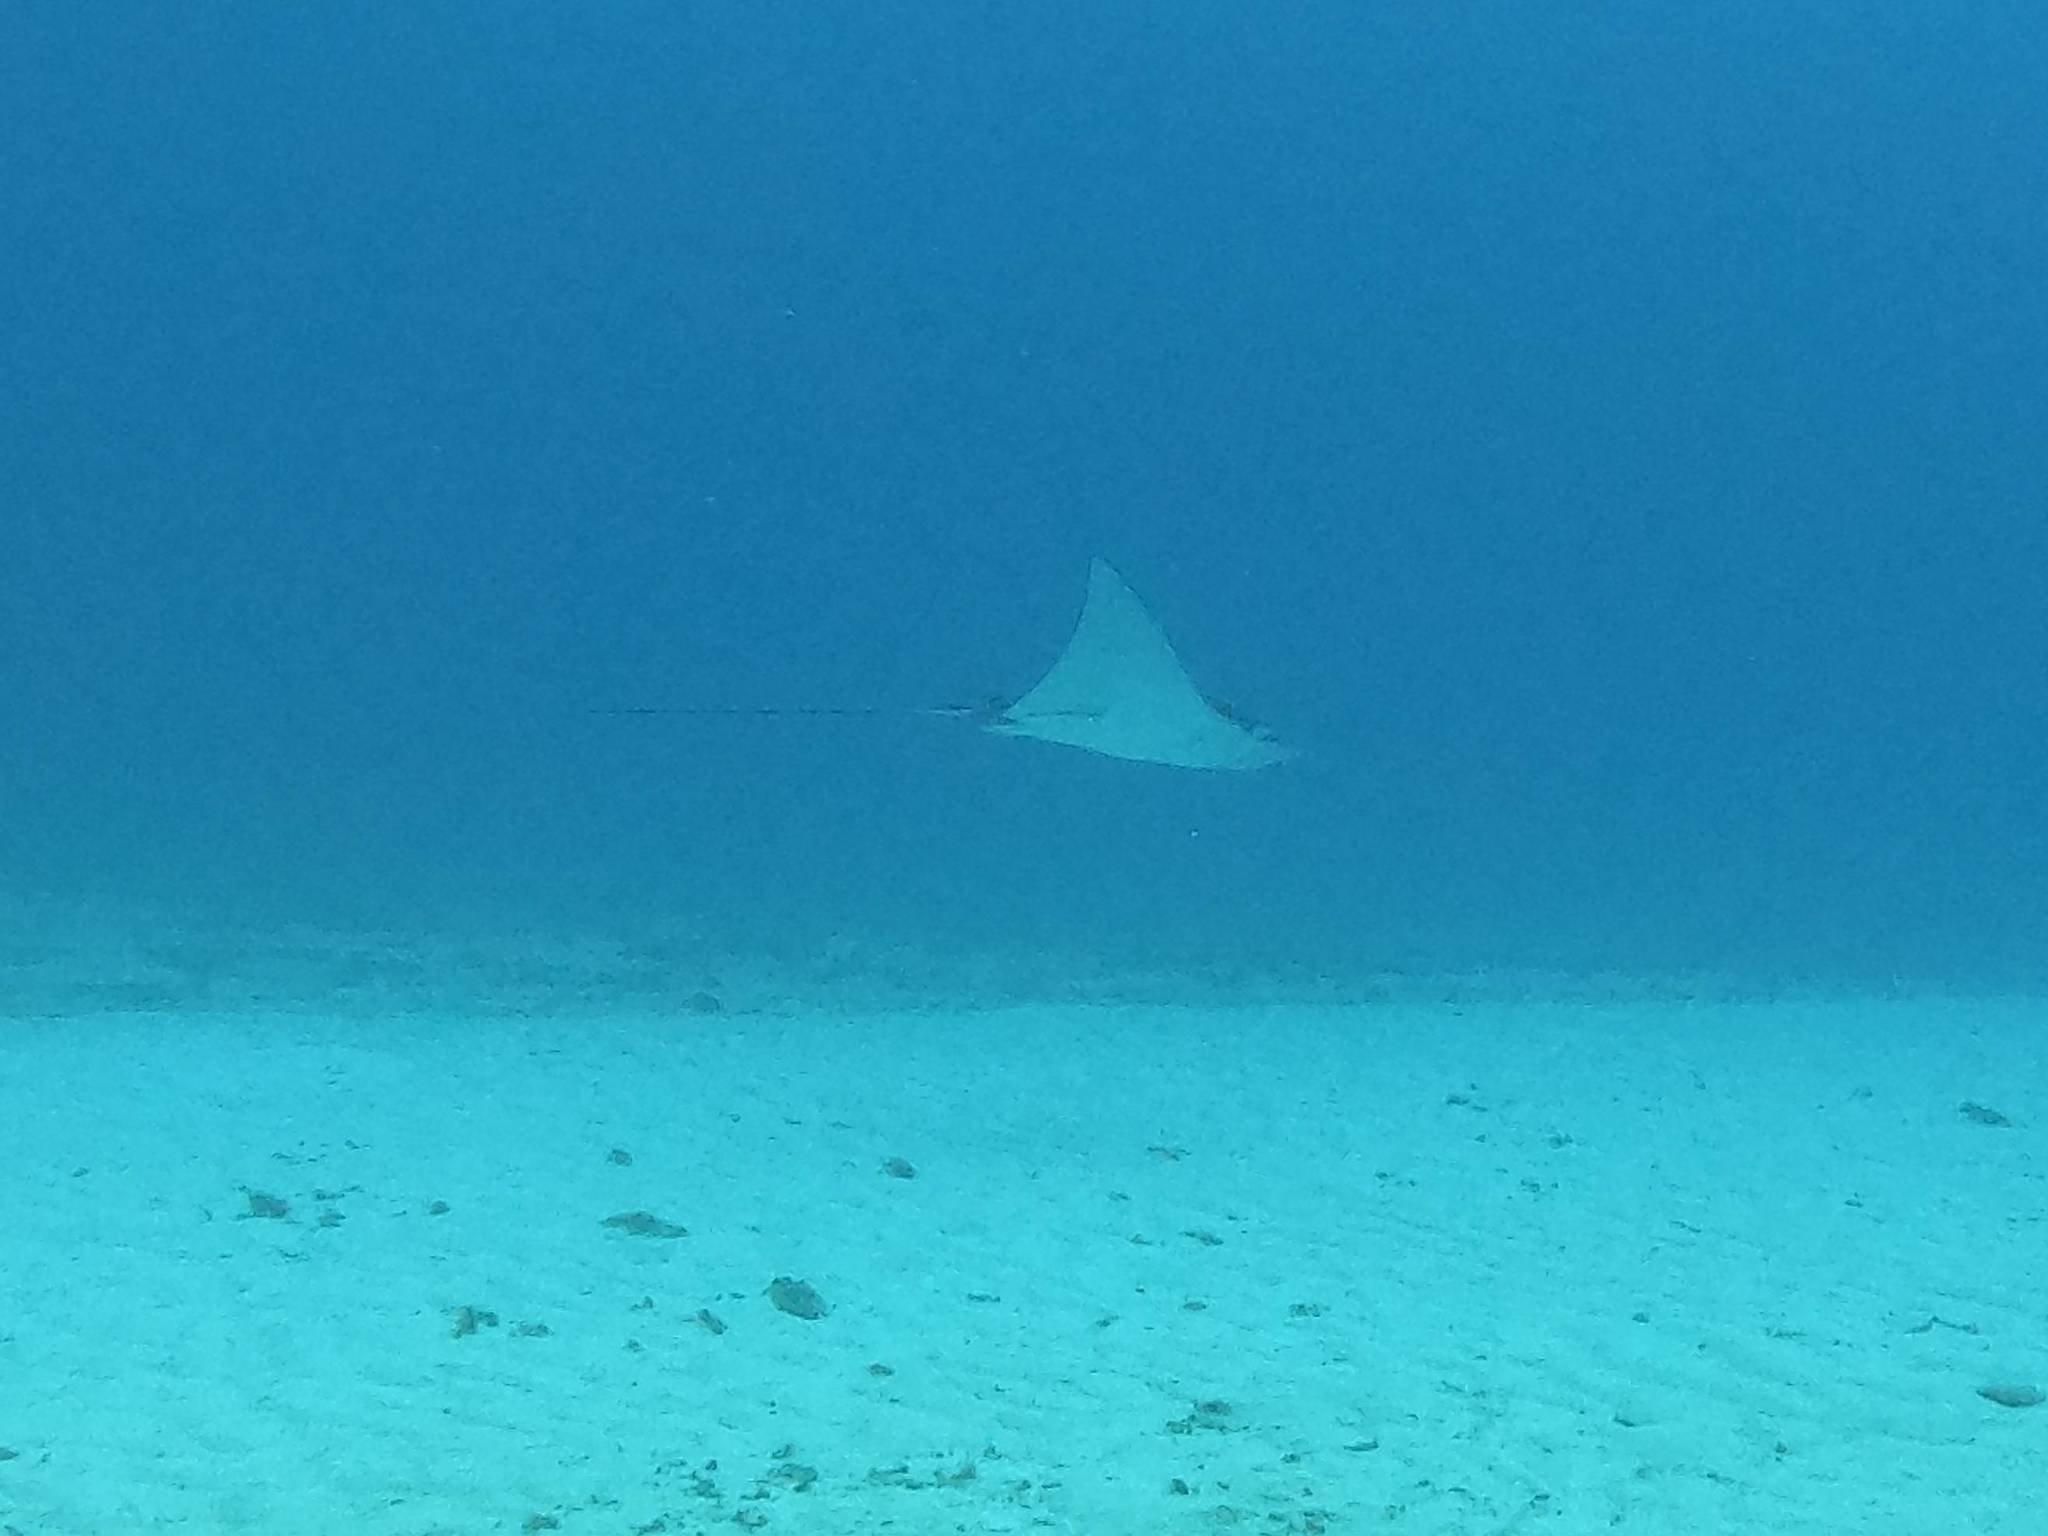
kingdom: Animalia
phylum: Chordata
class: Elasmobranchii
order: Myliobatiformes
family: Myliobatidae
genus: Aetobatus
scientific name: Aetobatus narinari
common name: Spotted eagle ray
